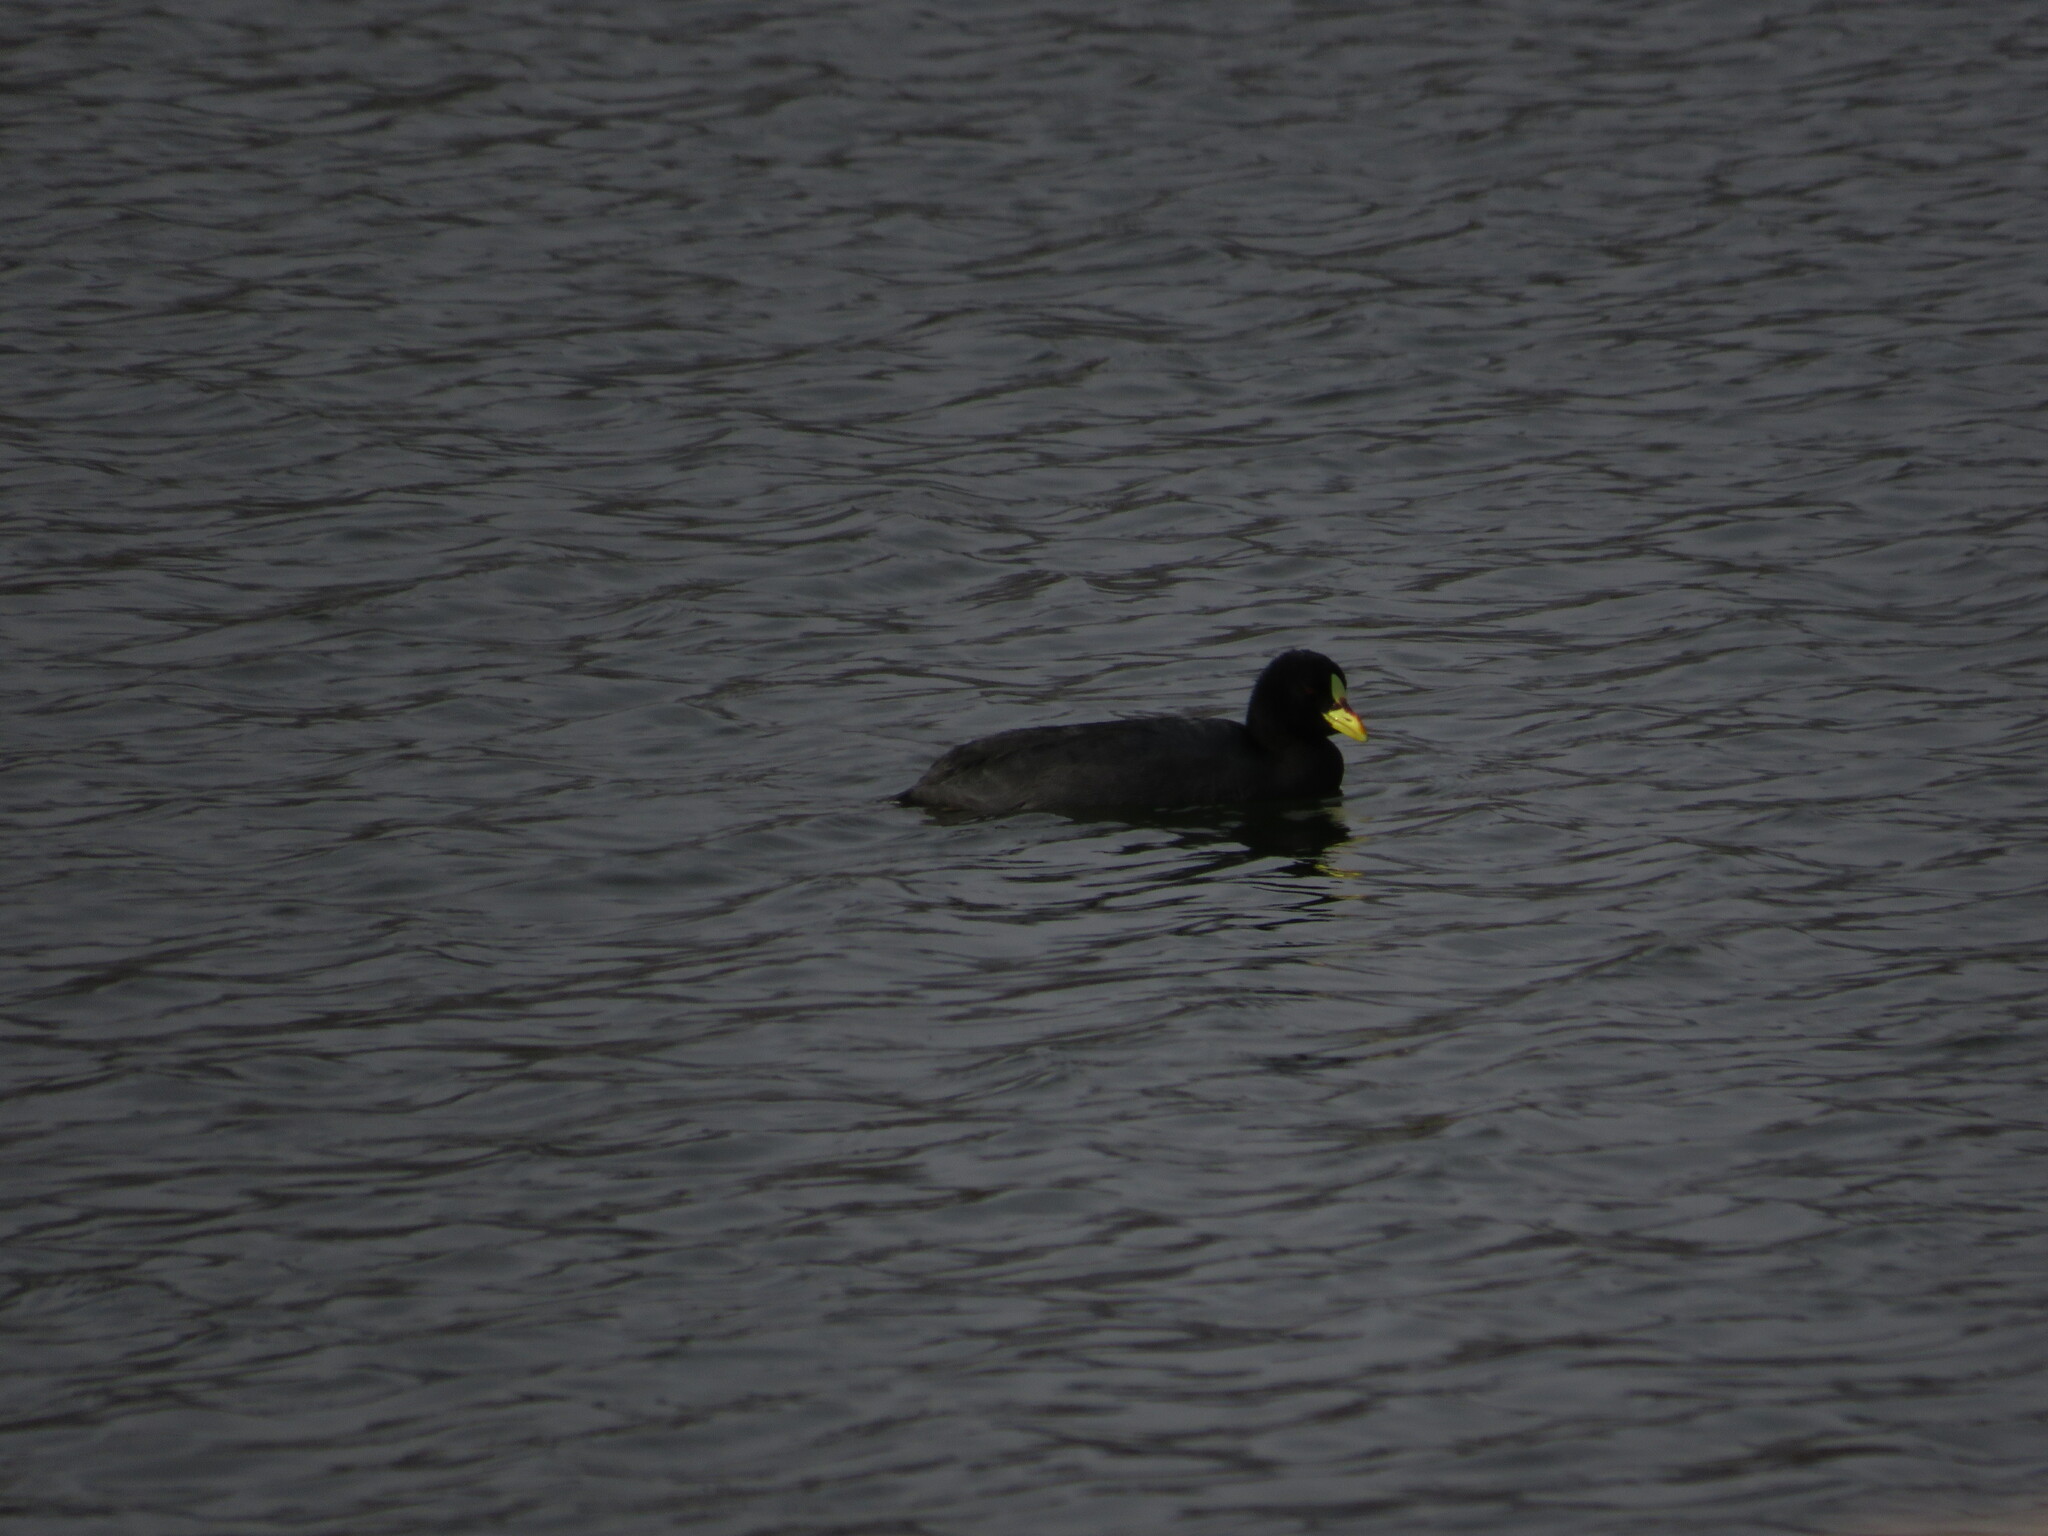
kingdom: Animalia
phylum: Chordata
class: Aves
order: Gruiformes
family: Rallidae
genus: Fulica
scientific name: Fulica armillata
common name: Red-gartered coot
